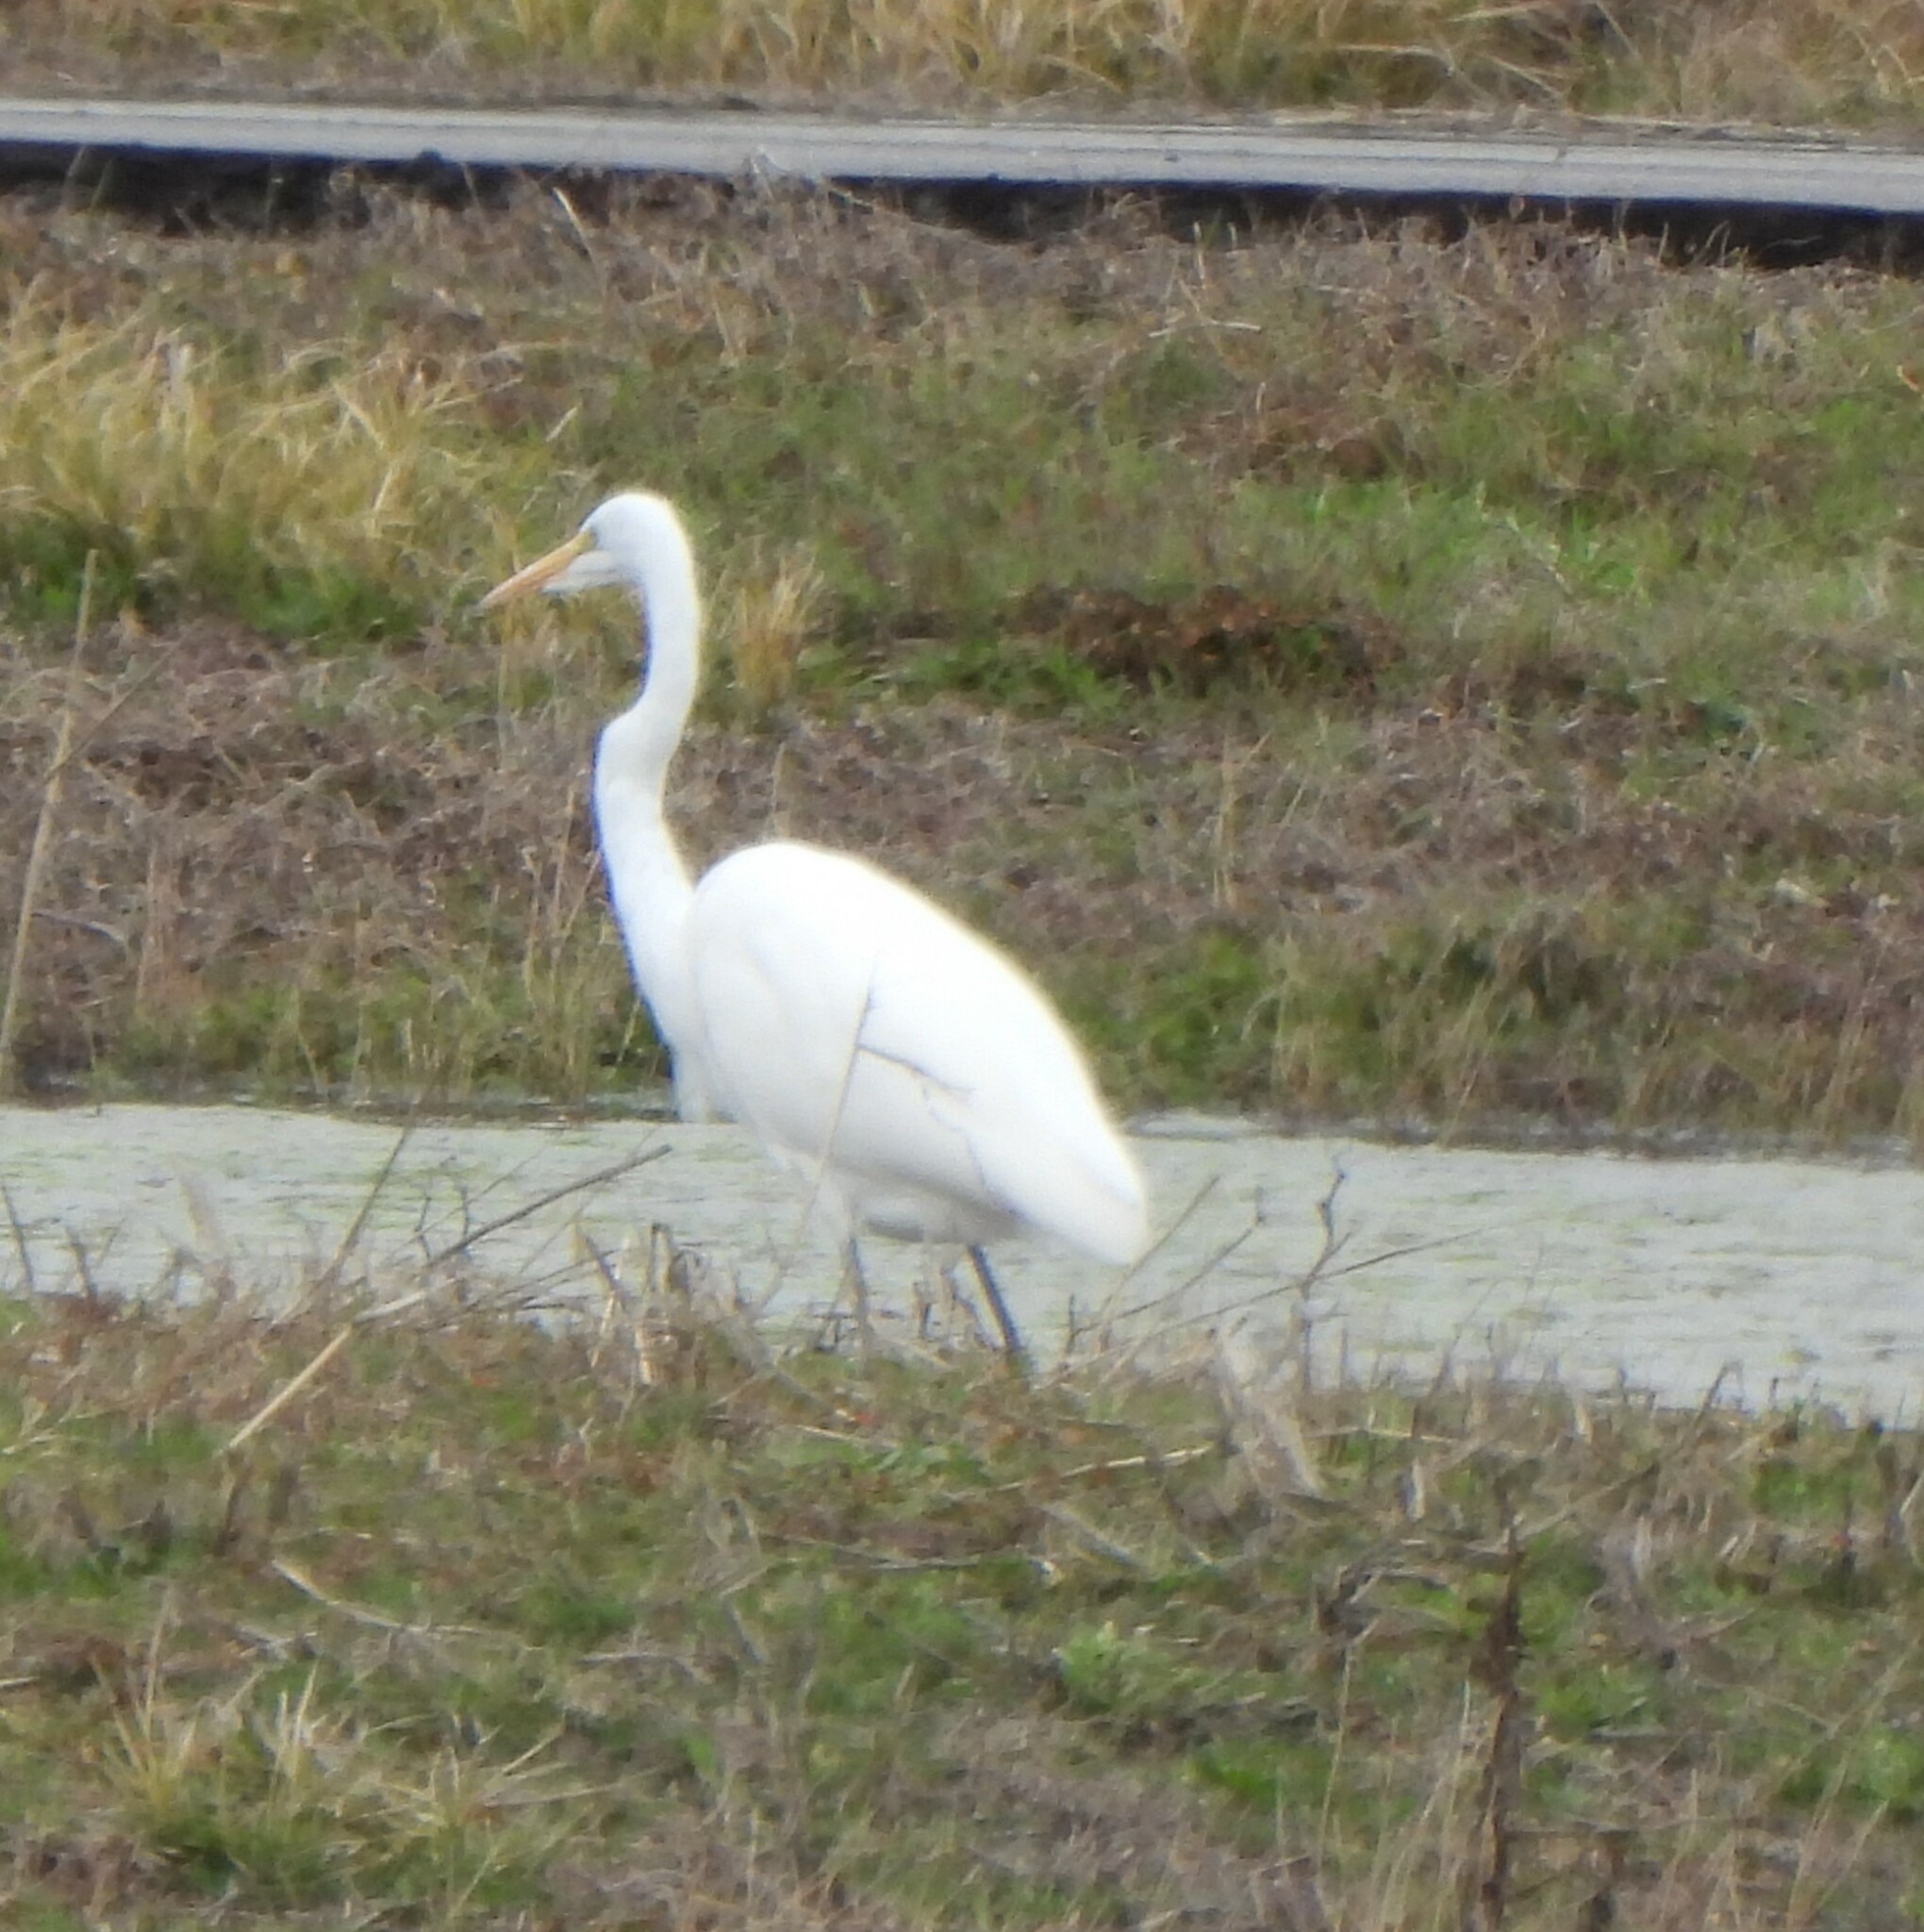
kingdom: Animalia
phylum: Chordata
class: Aves
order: Pelecaniformes
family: Ardeidae
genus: Ardea
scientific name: Ardea alba
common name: Great egret
